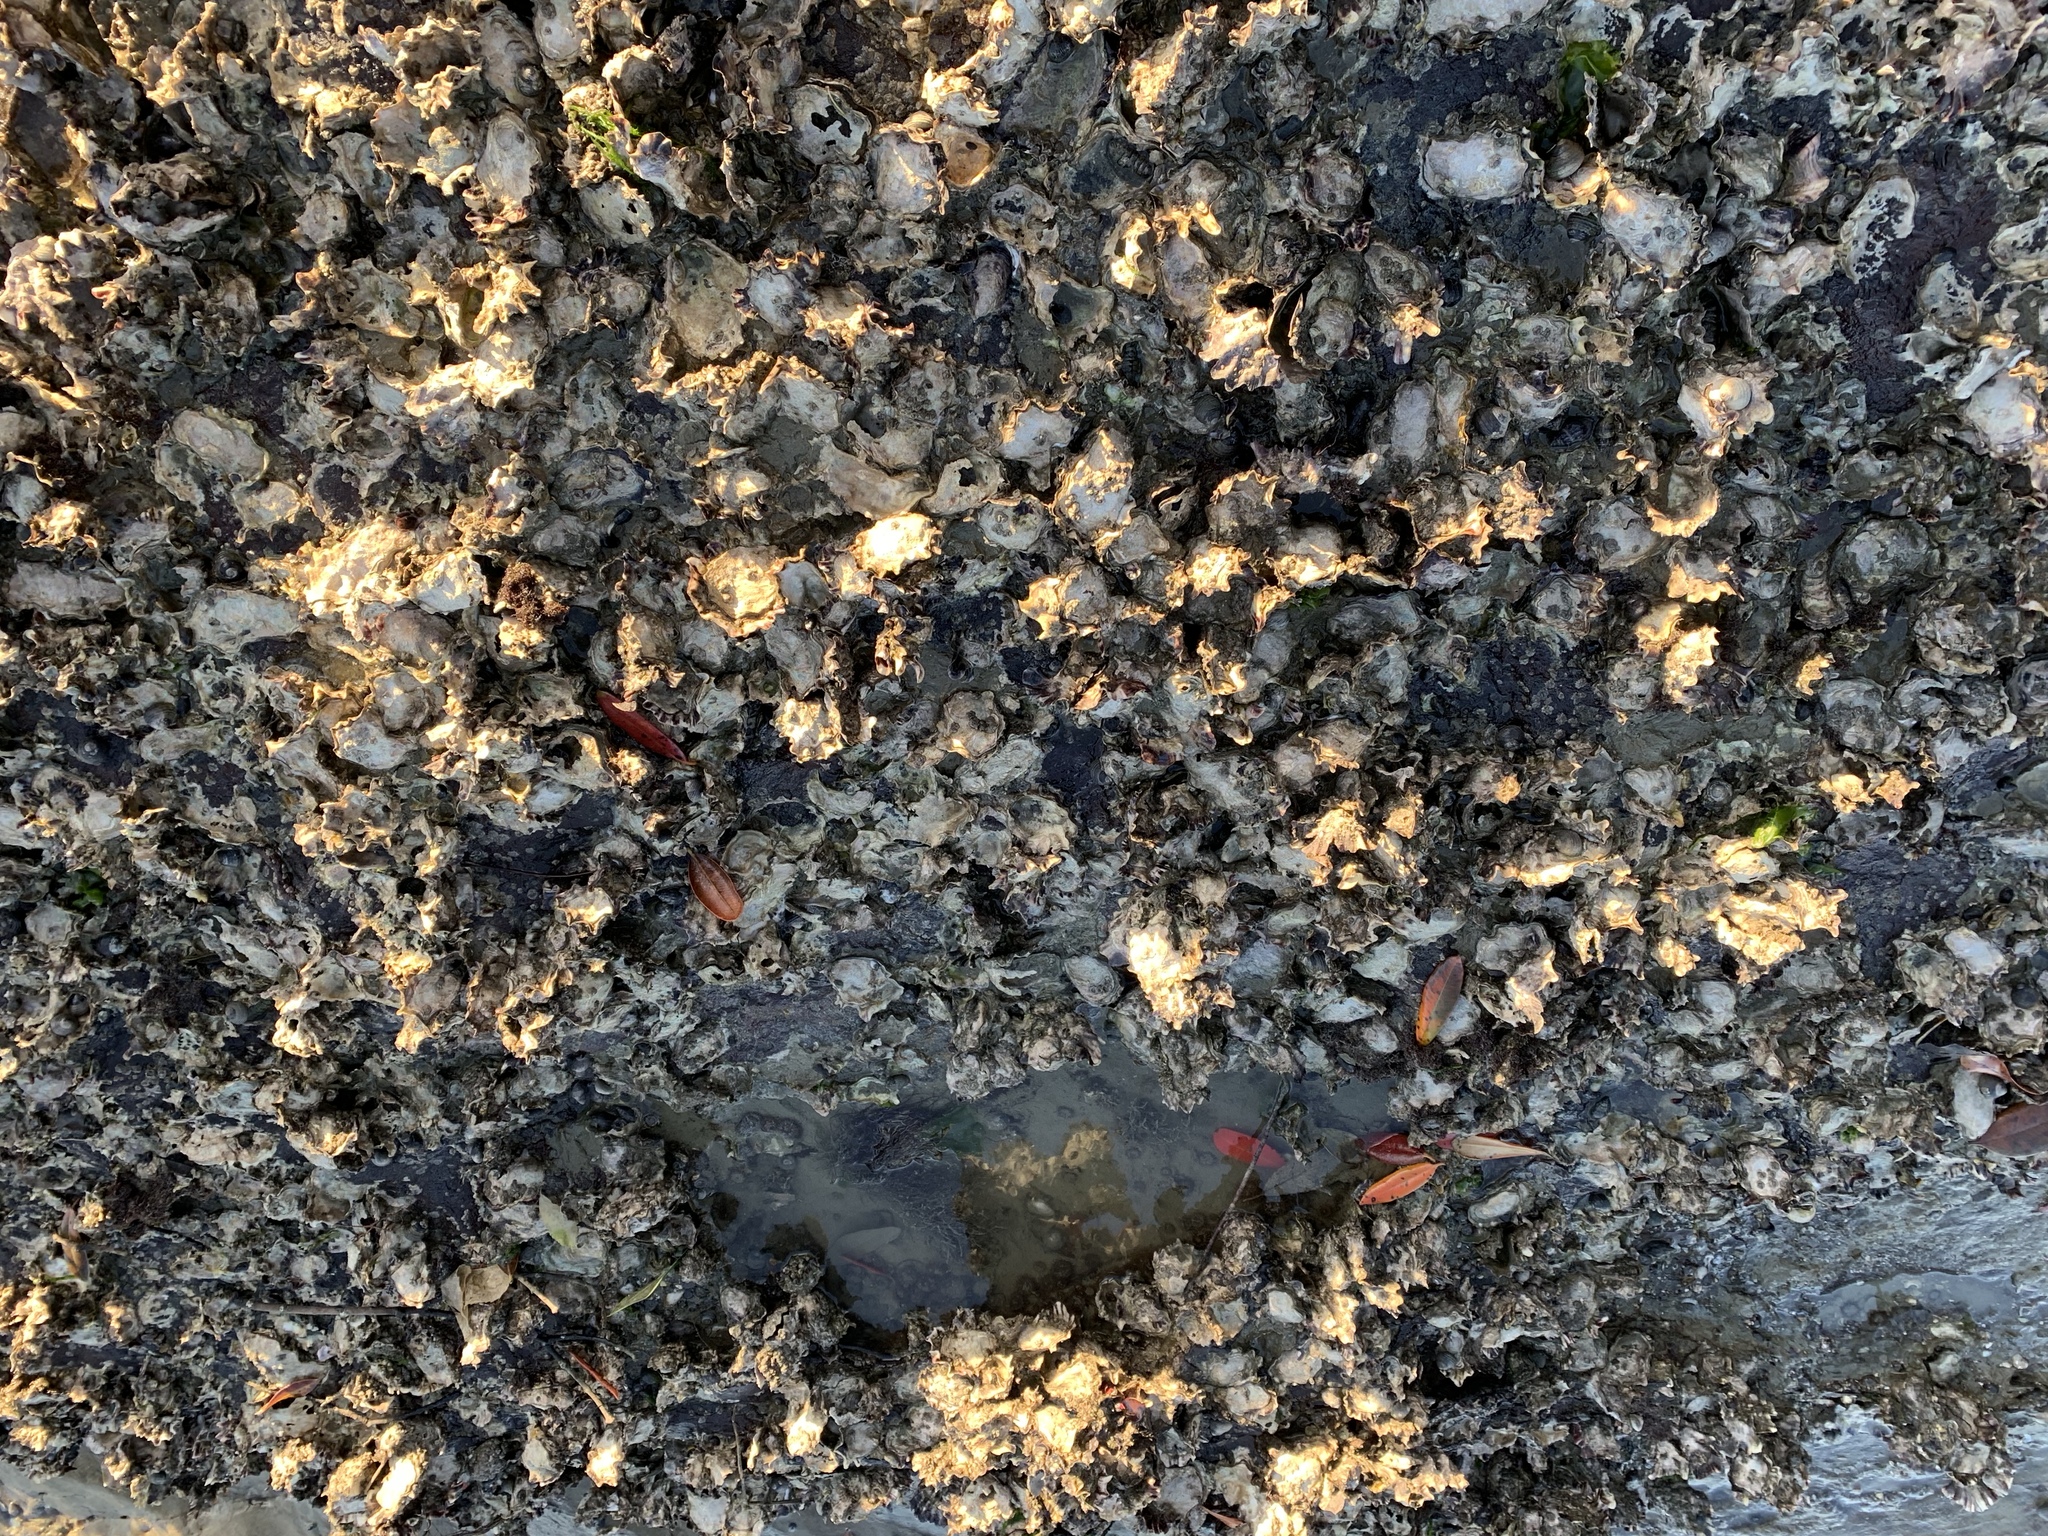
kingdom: Animalia
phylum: Mollusca
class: Bivalvia
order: Ostreida
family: Ostreidae
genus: Saccostrea
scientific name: Saccostrea glomerata
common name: Sydney cupped oyster
